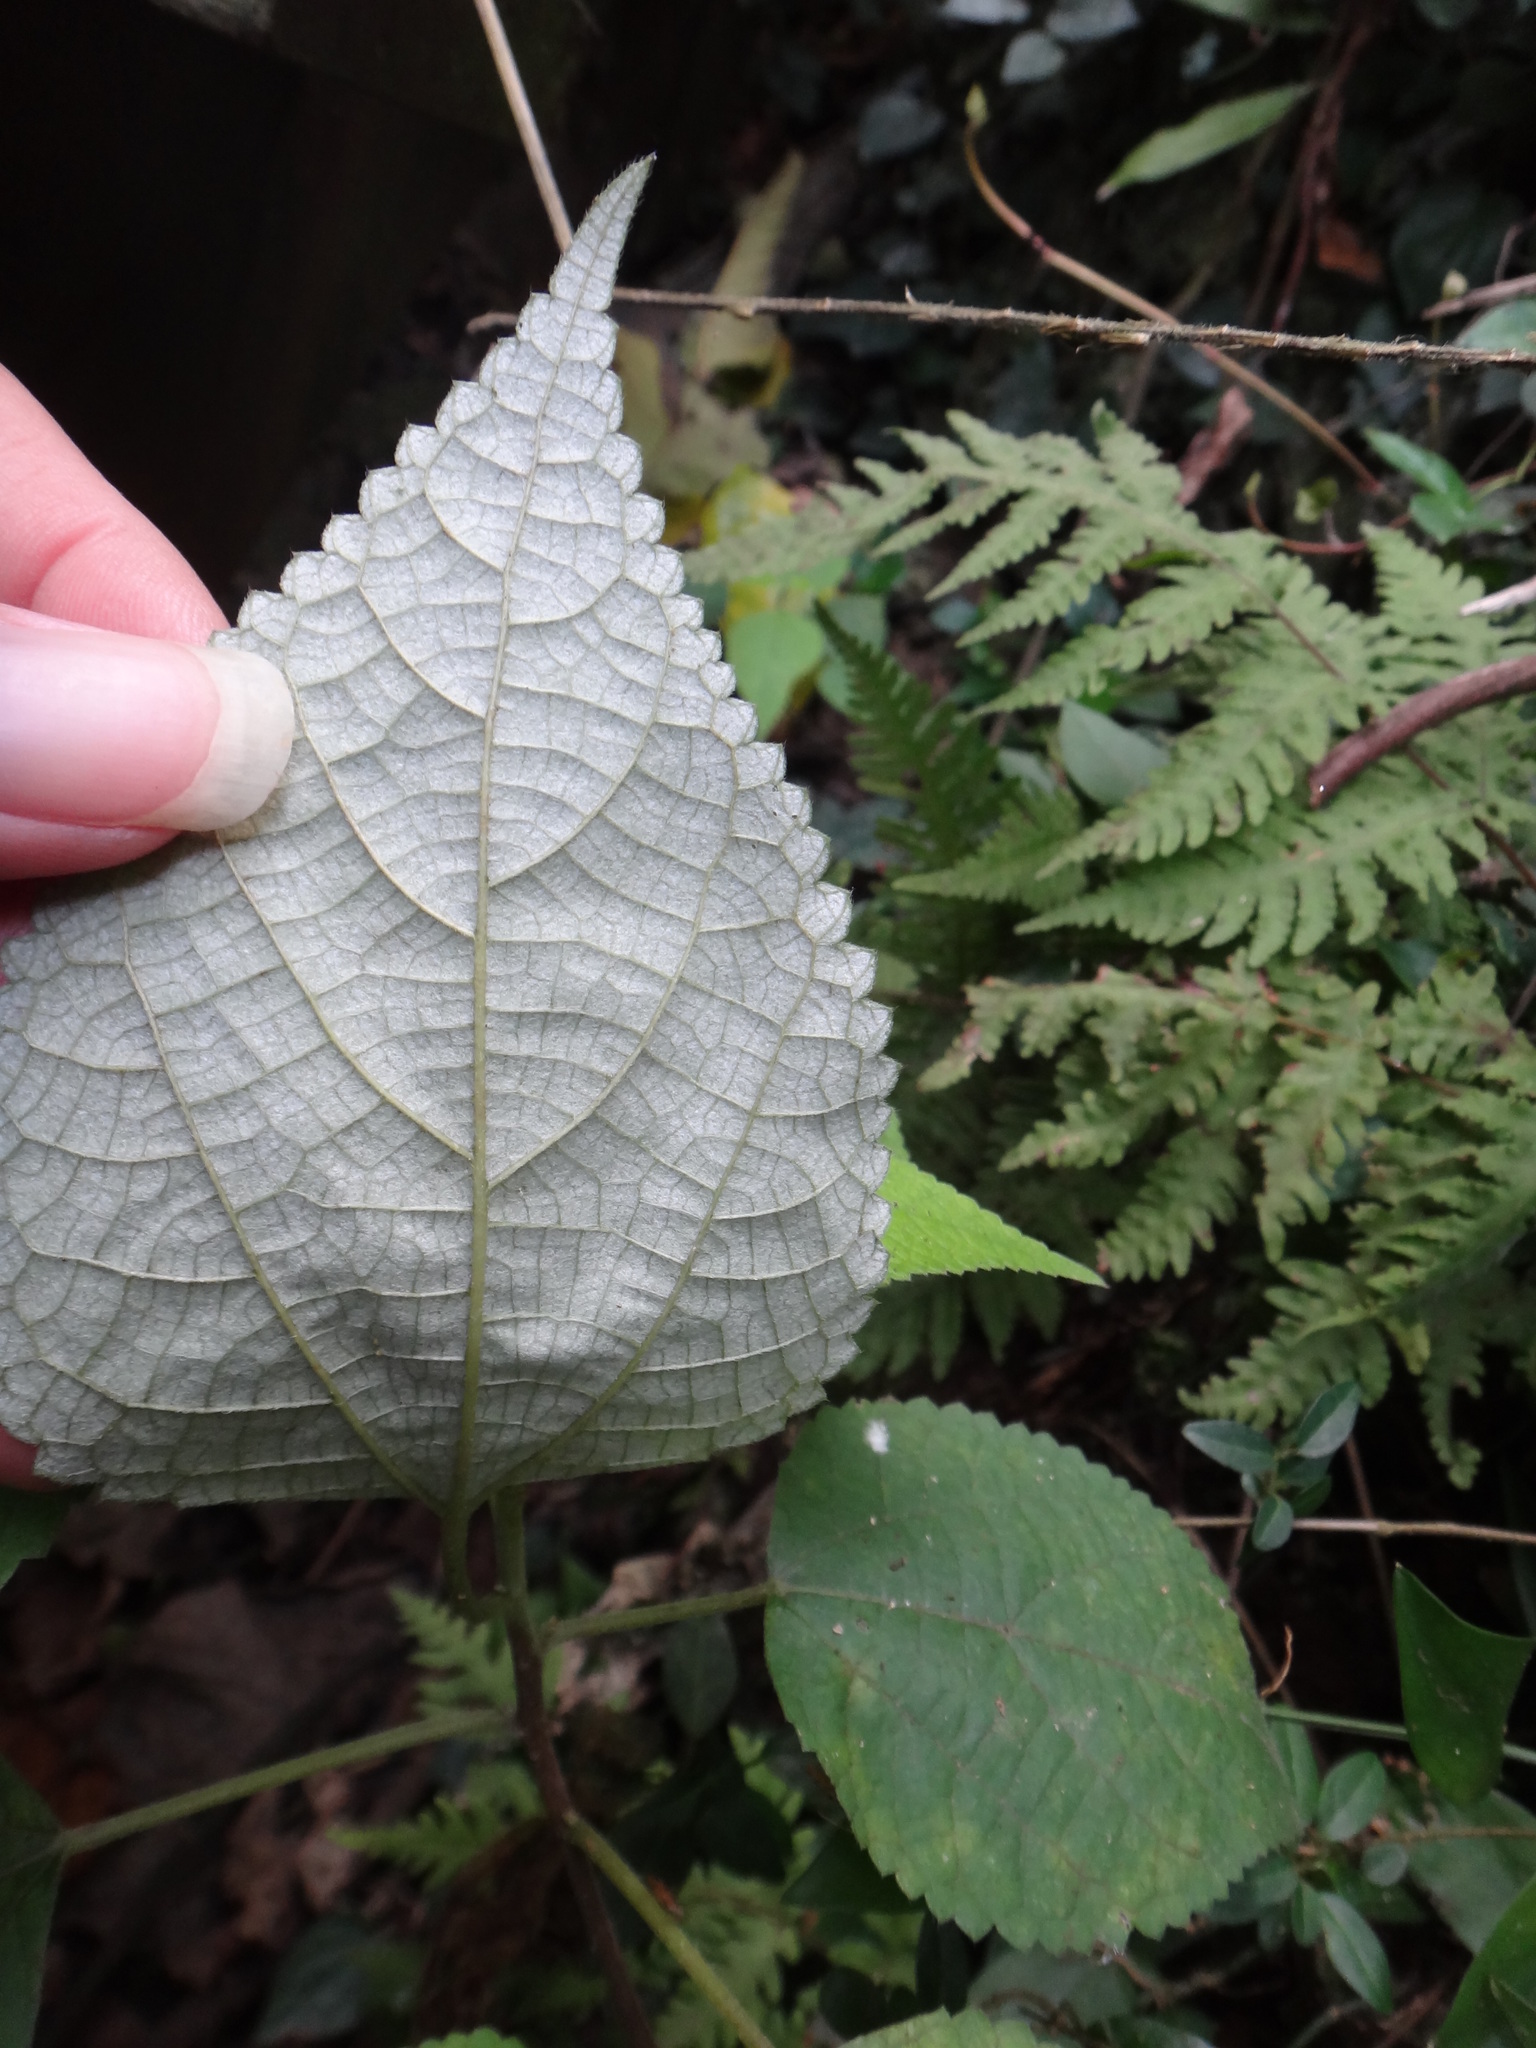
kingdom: Plantae
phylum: Tracheophyta
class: Magnoliopsida
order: Rosales
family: Urticaceae
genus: Boehmeria
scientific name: Boehmeria nivea
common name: Ramie chinese grass
